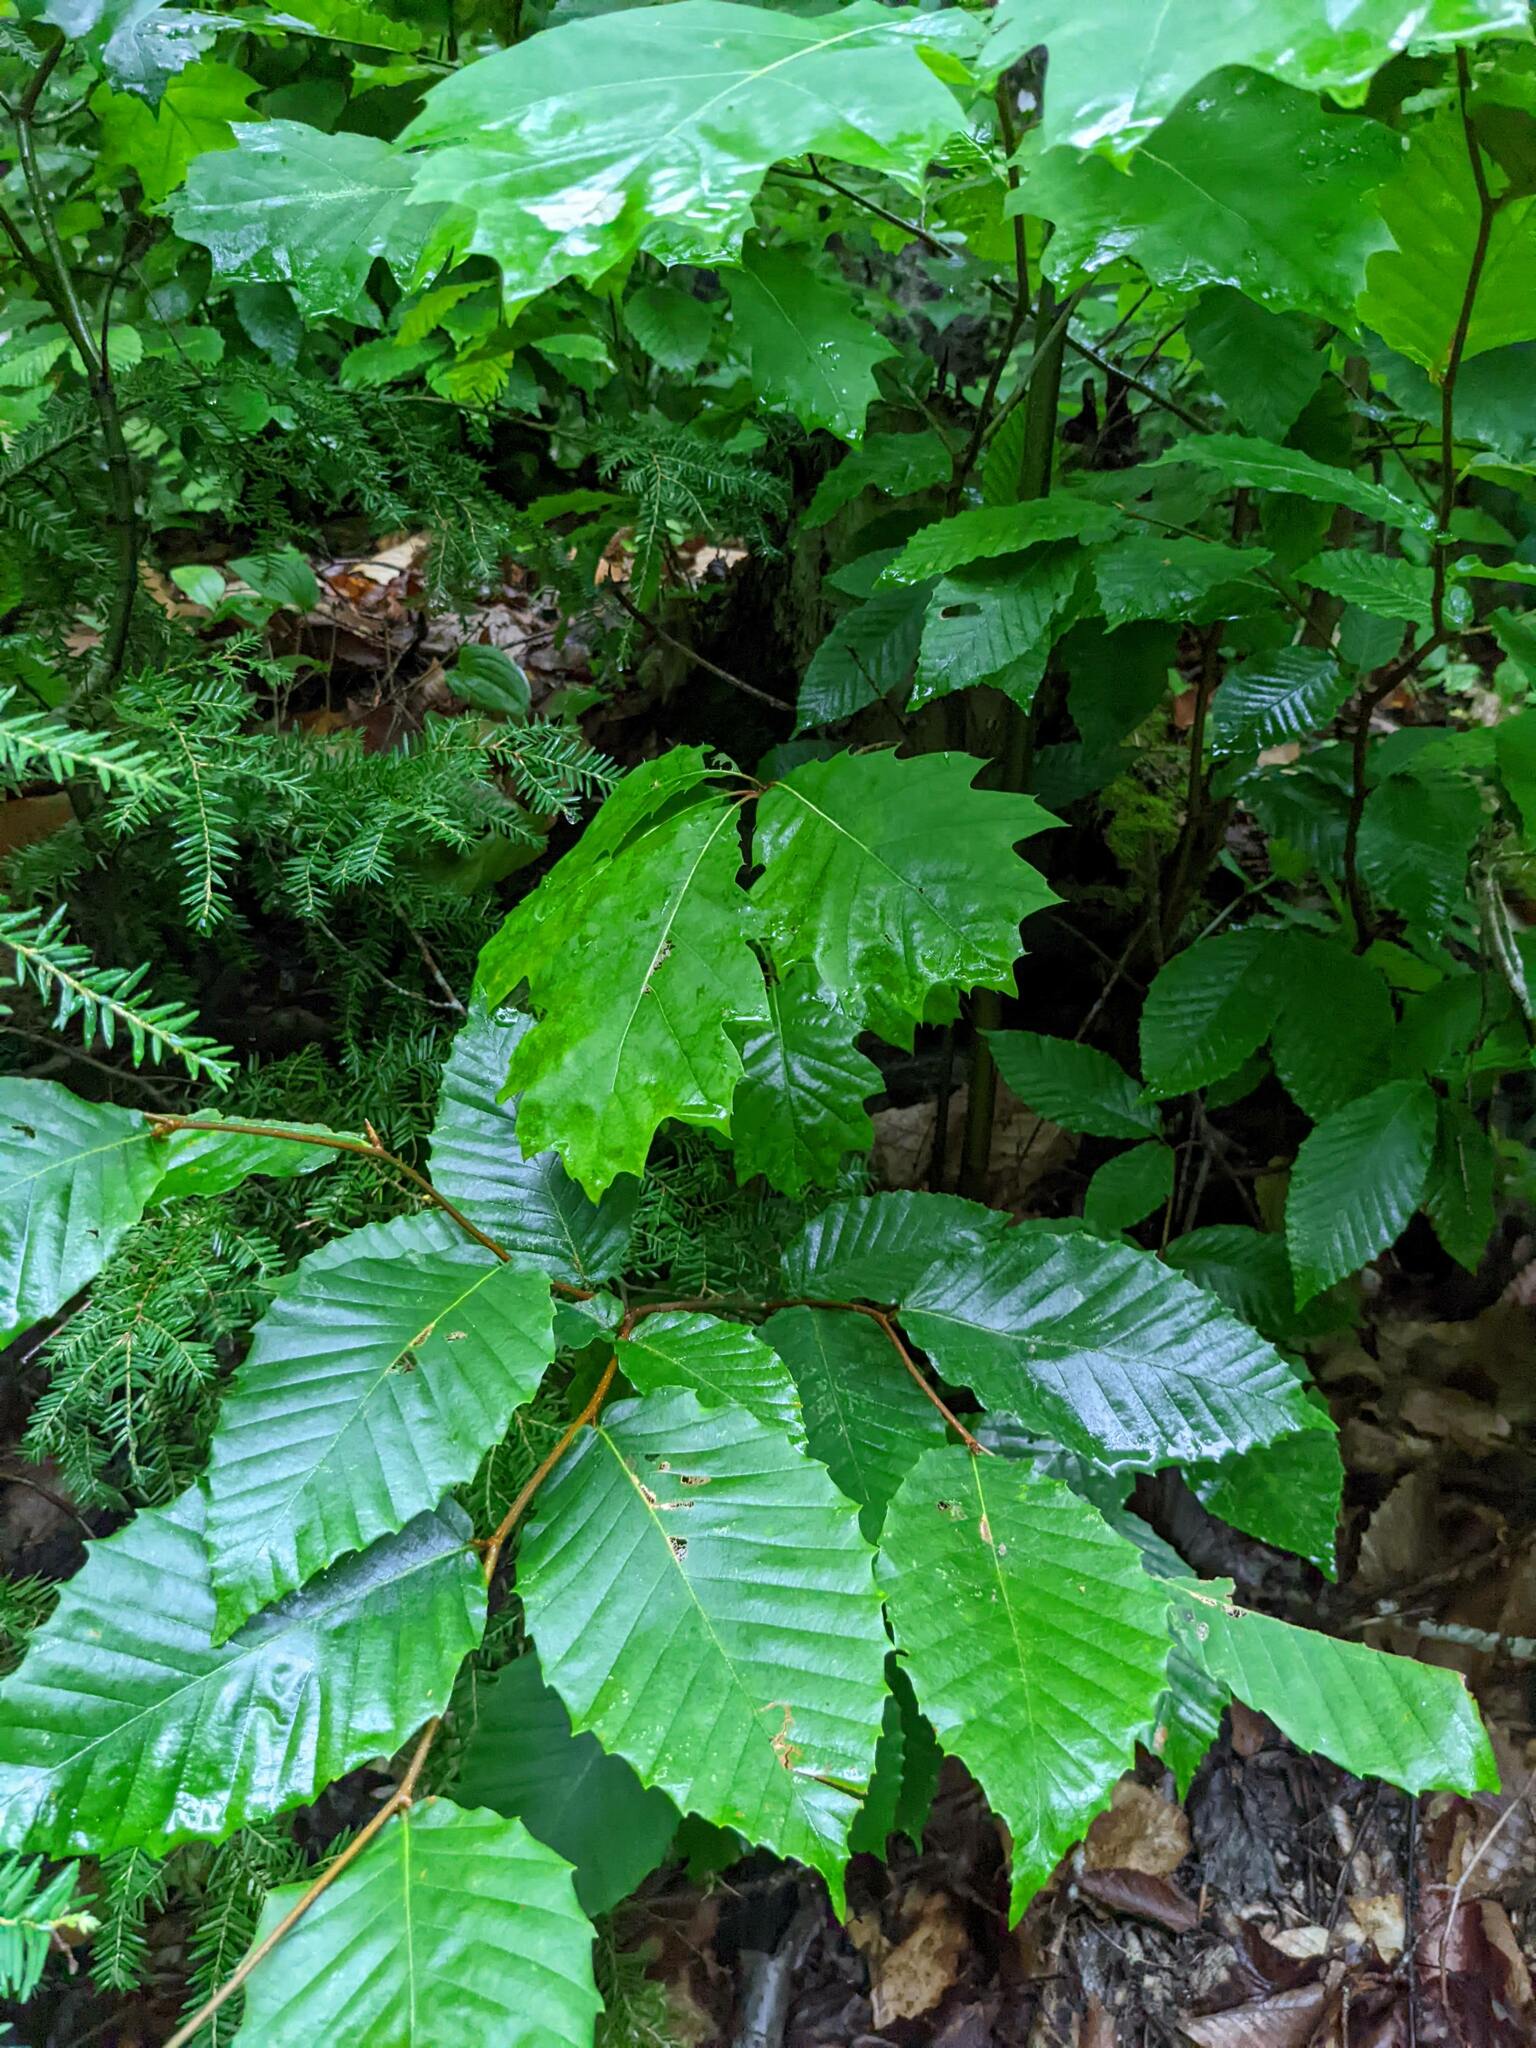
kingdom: Plantae
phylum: Tracheophyta
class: Magnoliopsida
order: Fagales
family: Fagaceae
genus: Quercus
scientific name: Quercus rubra
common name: Red oak
